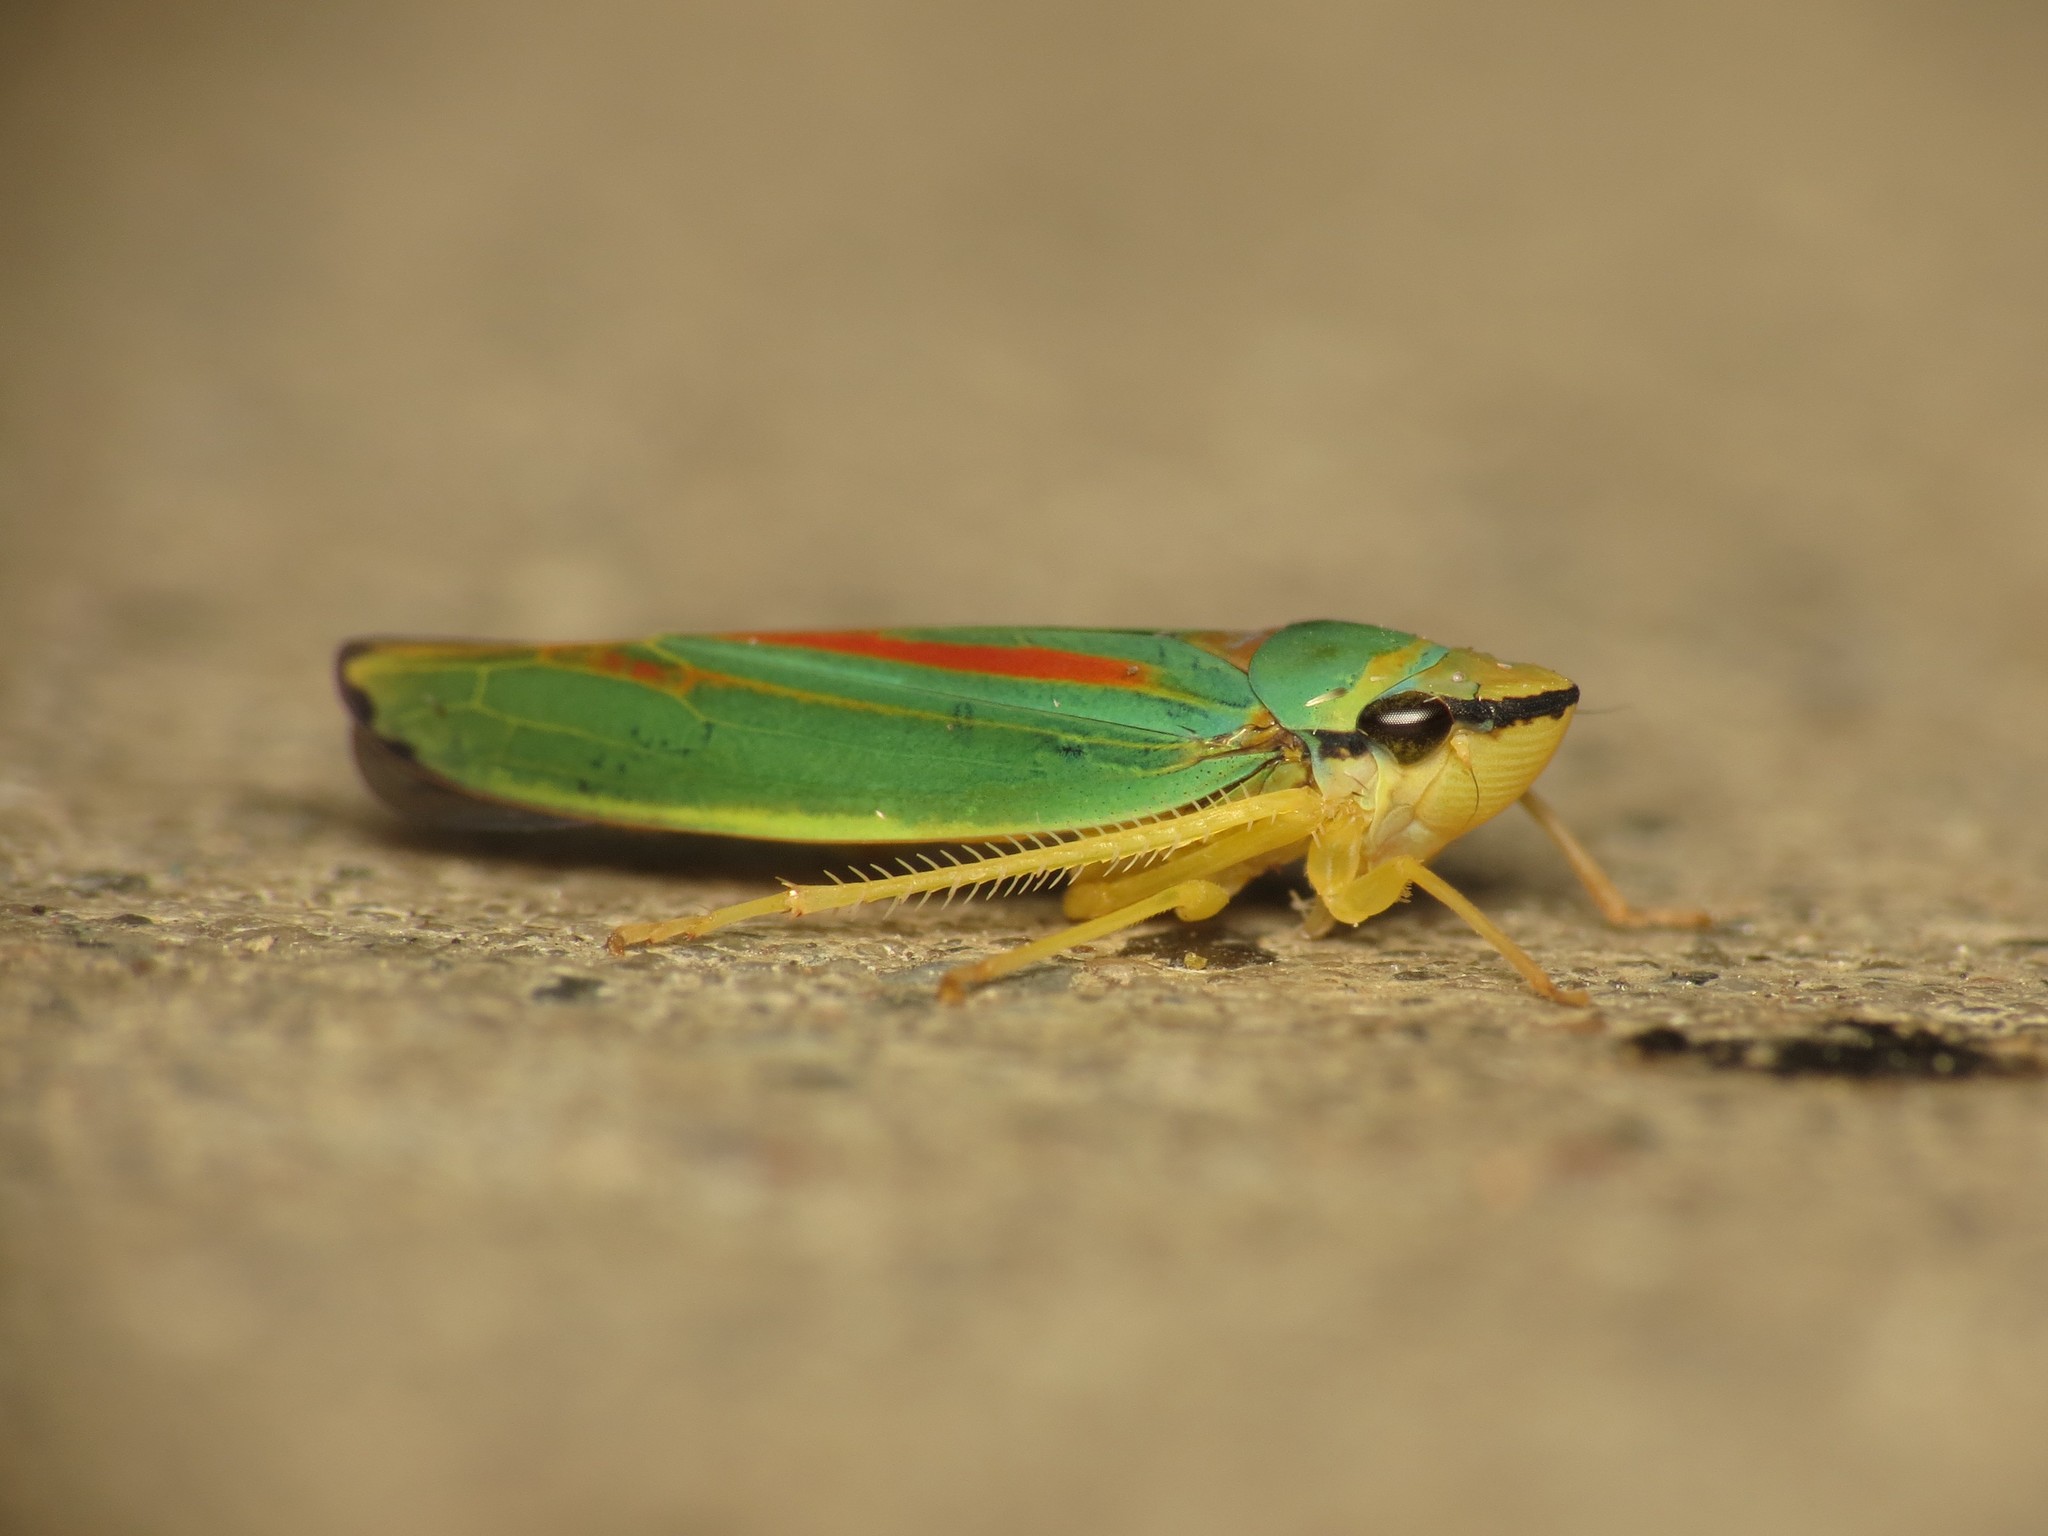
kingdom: Animalia
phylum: Arthropoda
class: Insecta
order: Hemiptera
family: Cicadellidae
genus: Graphocephala
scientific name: Graphocephala fennahi
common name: Rhododendron leafhopper
